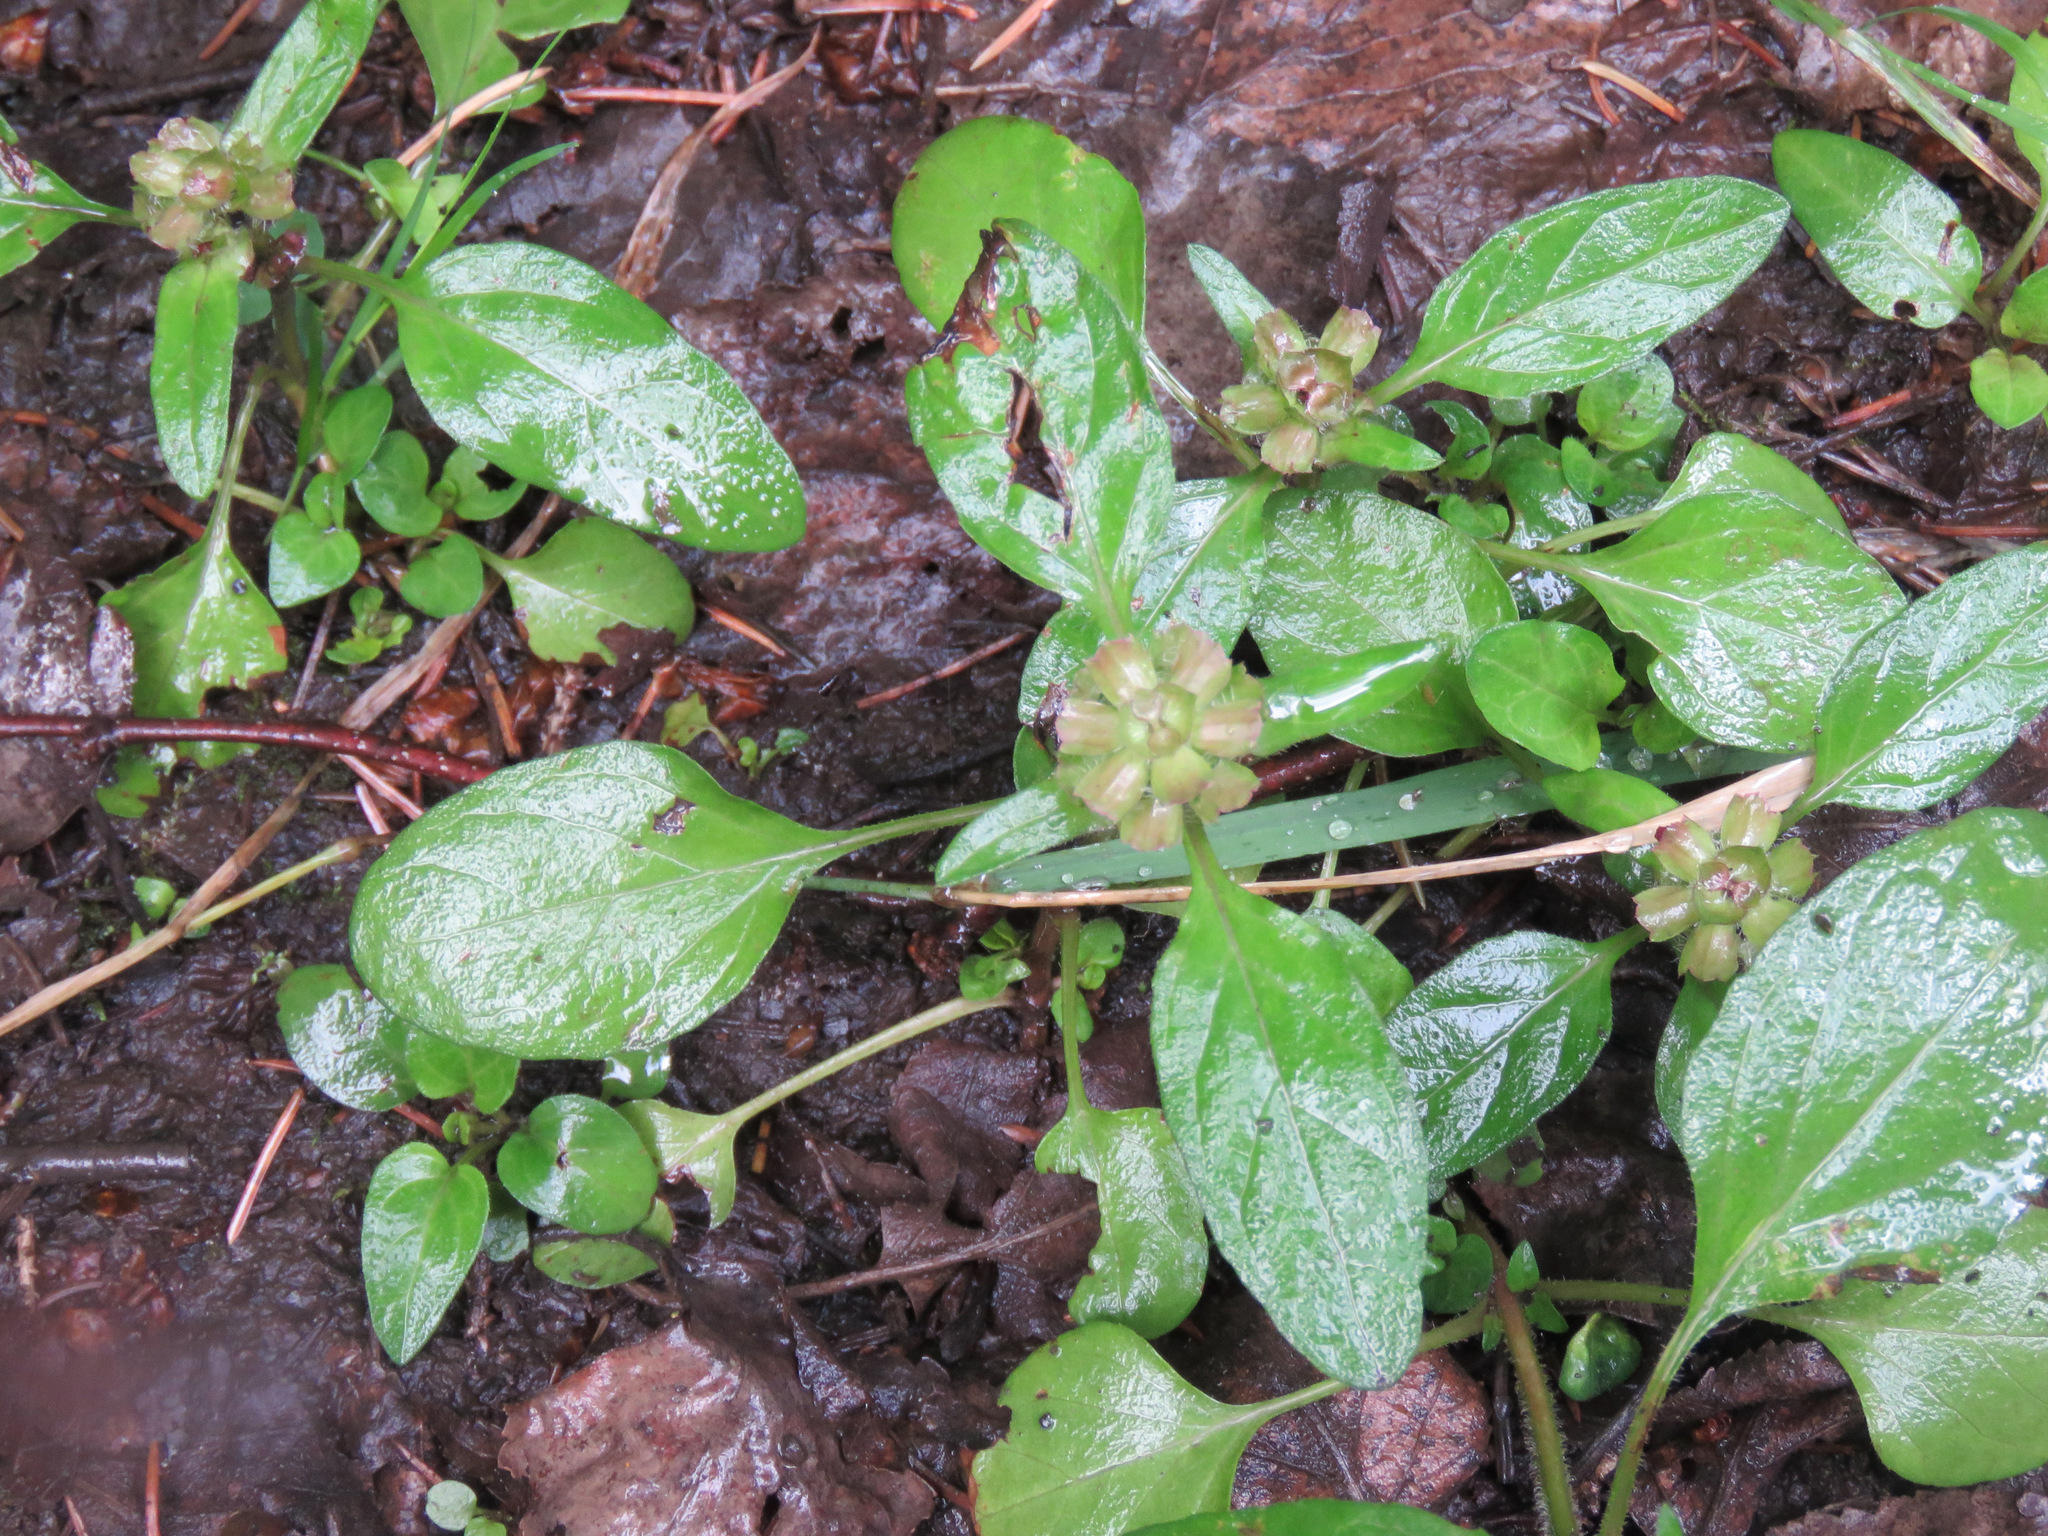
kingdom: Plantae
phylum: Tracheophyta
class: Magnoliopsida
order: Lamiales
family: Lamiaceae
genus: Prunella
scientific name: Prunella vulgaris
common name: Heal-all
